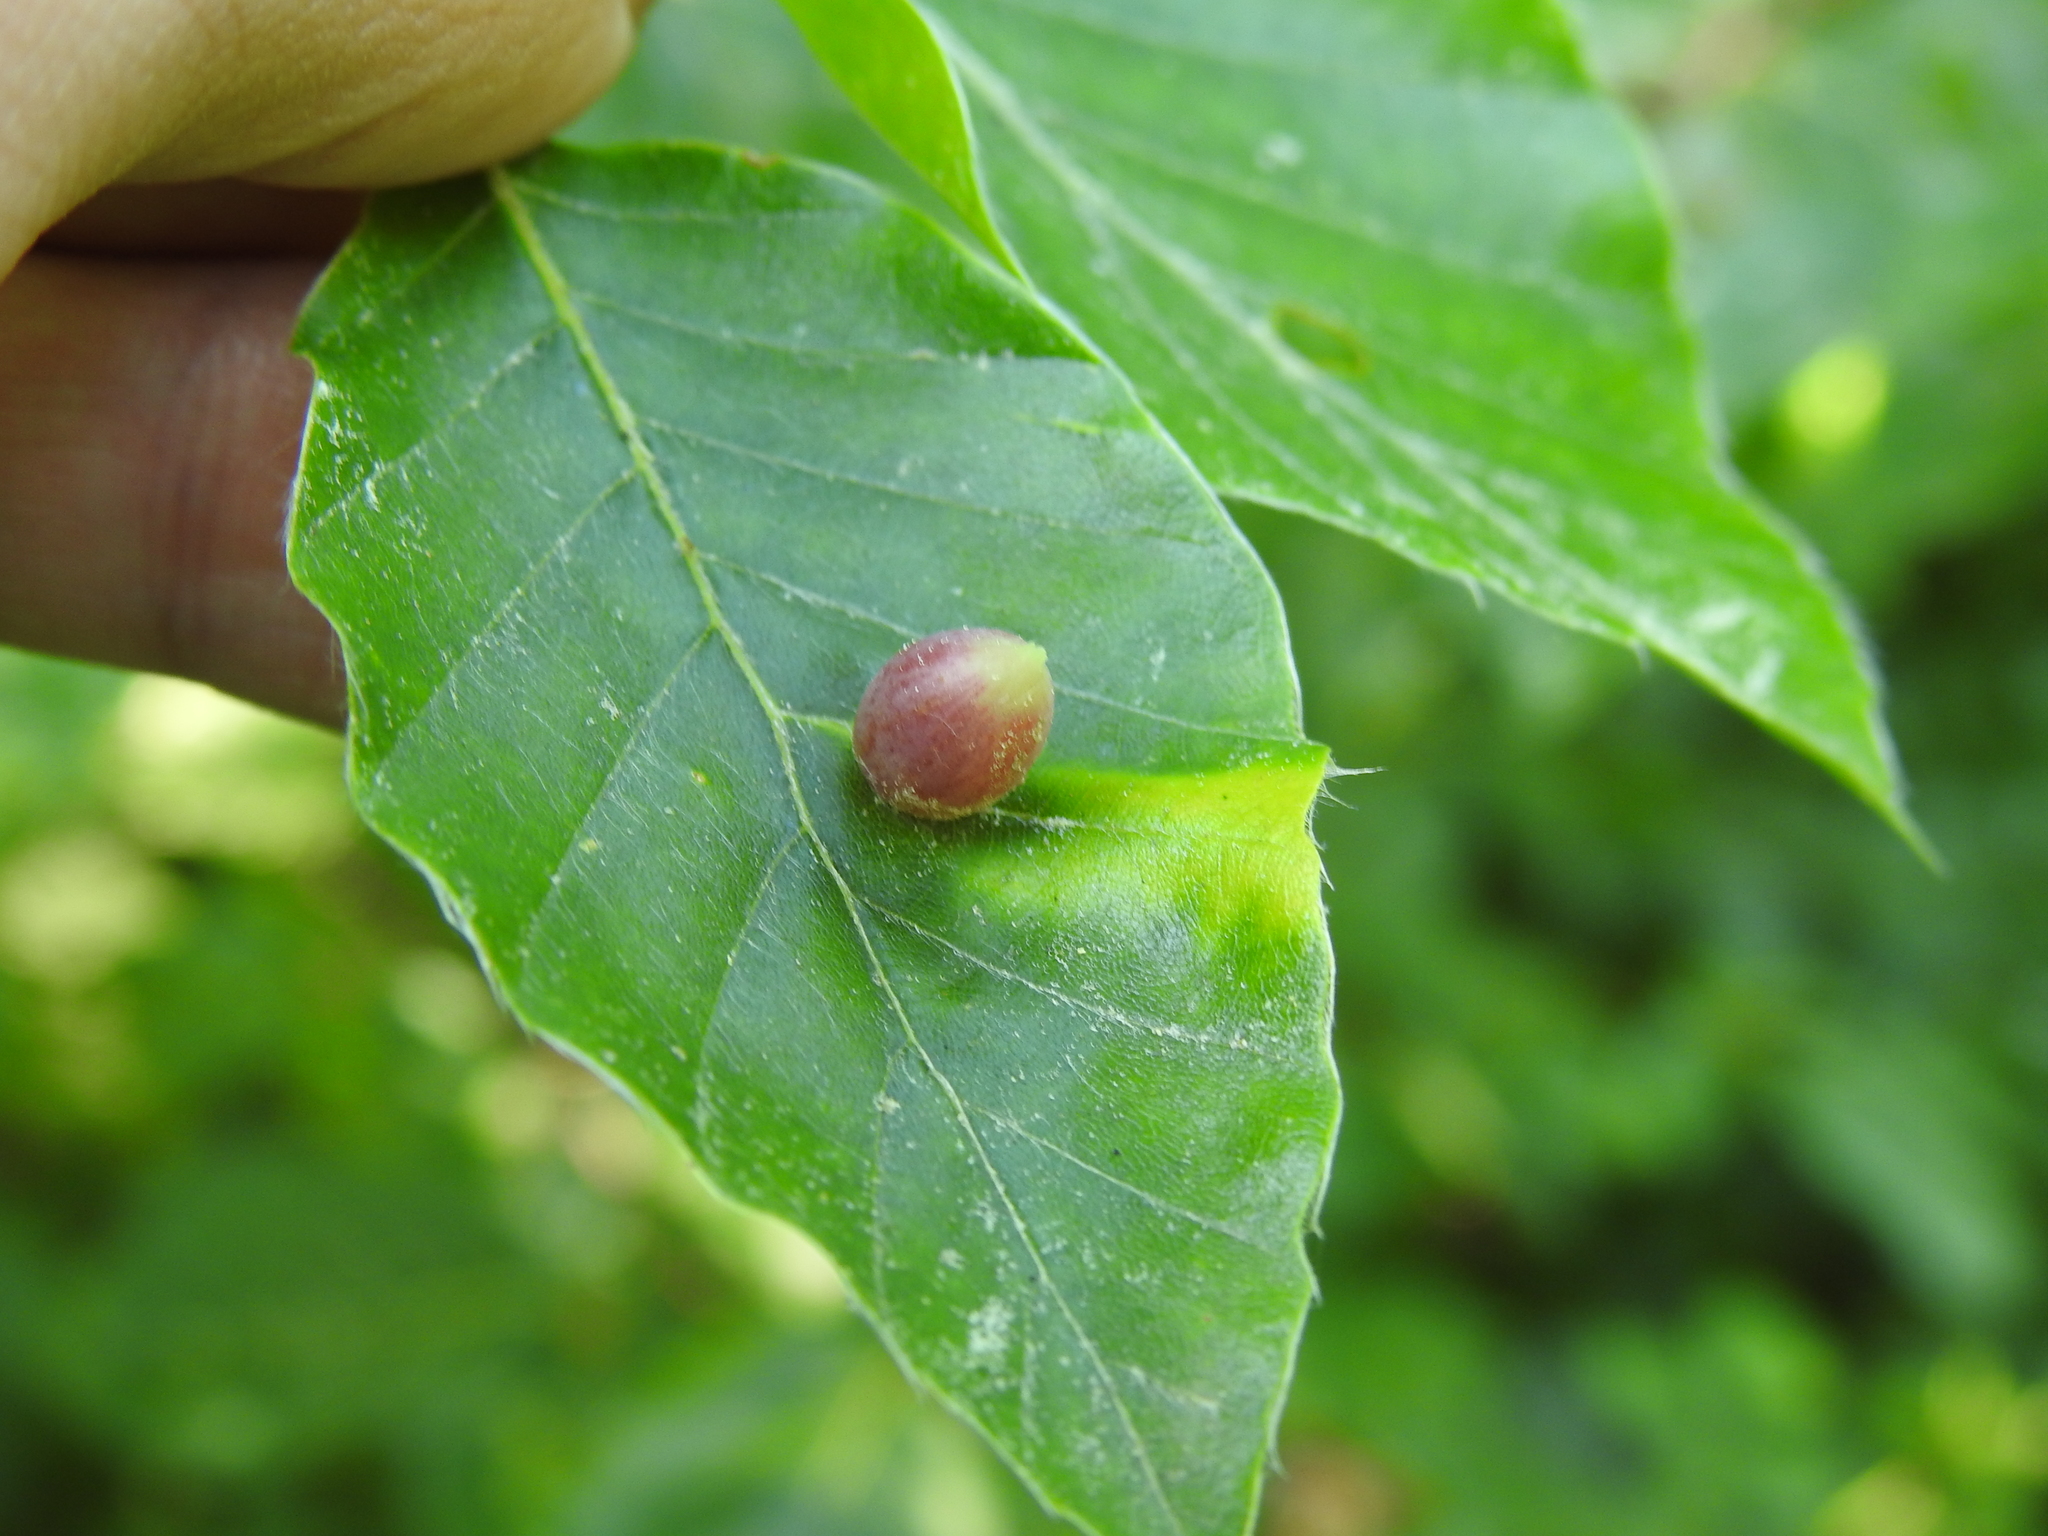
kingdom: Animalia
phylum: Arthropoda
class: Insecta
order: Diptera
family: Cecidomyiidae
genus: Mikiola
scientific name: Mikiola fagi
